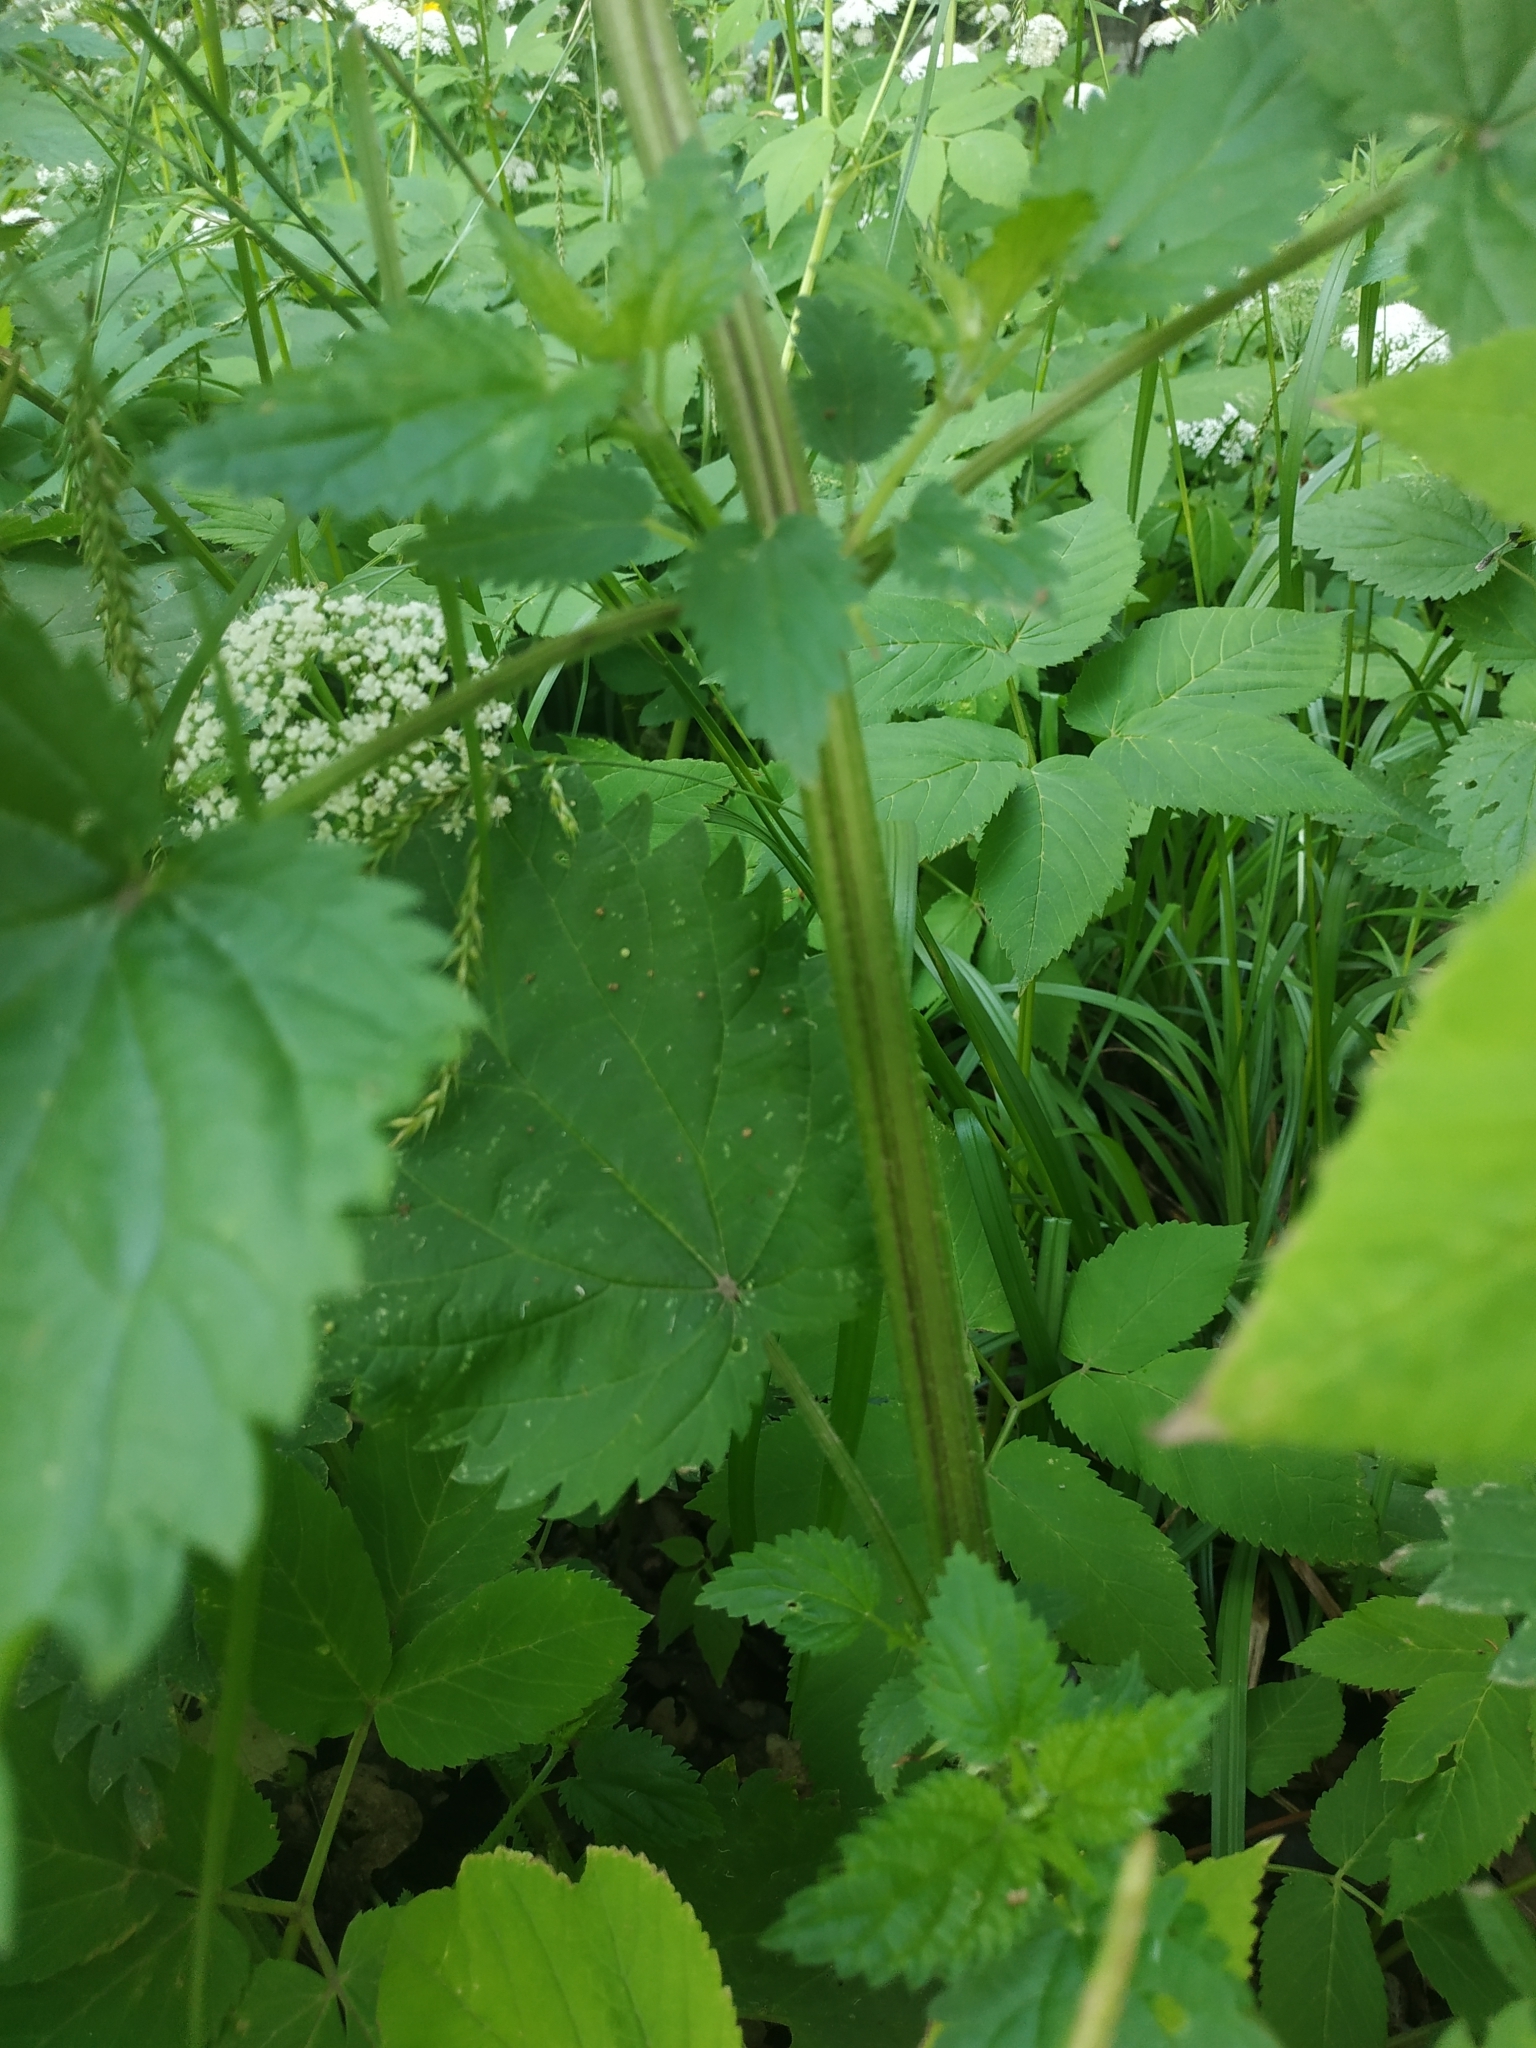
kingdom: Plantae
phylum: Tracheophyta
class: Magnoliopsida
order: Rosales
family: Urticaceae
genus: Urtica
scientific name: Urtica dioica
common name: Common nettle
